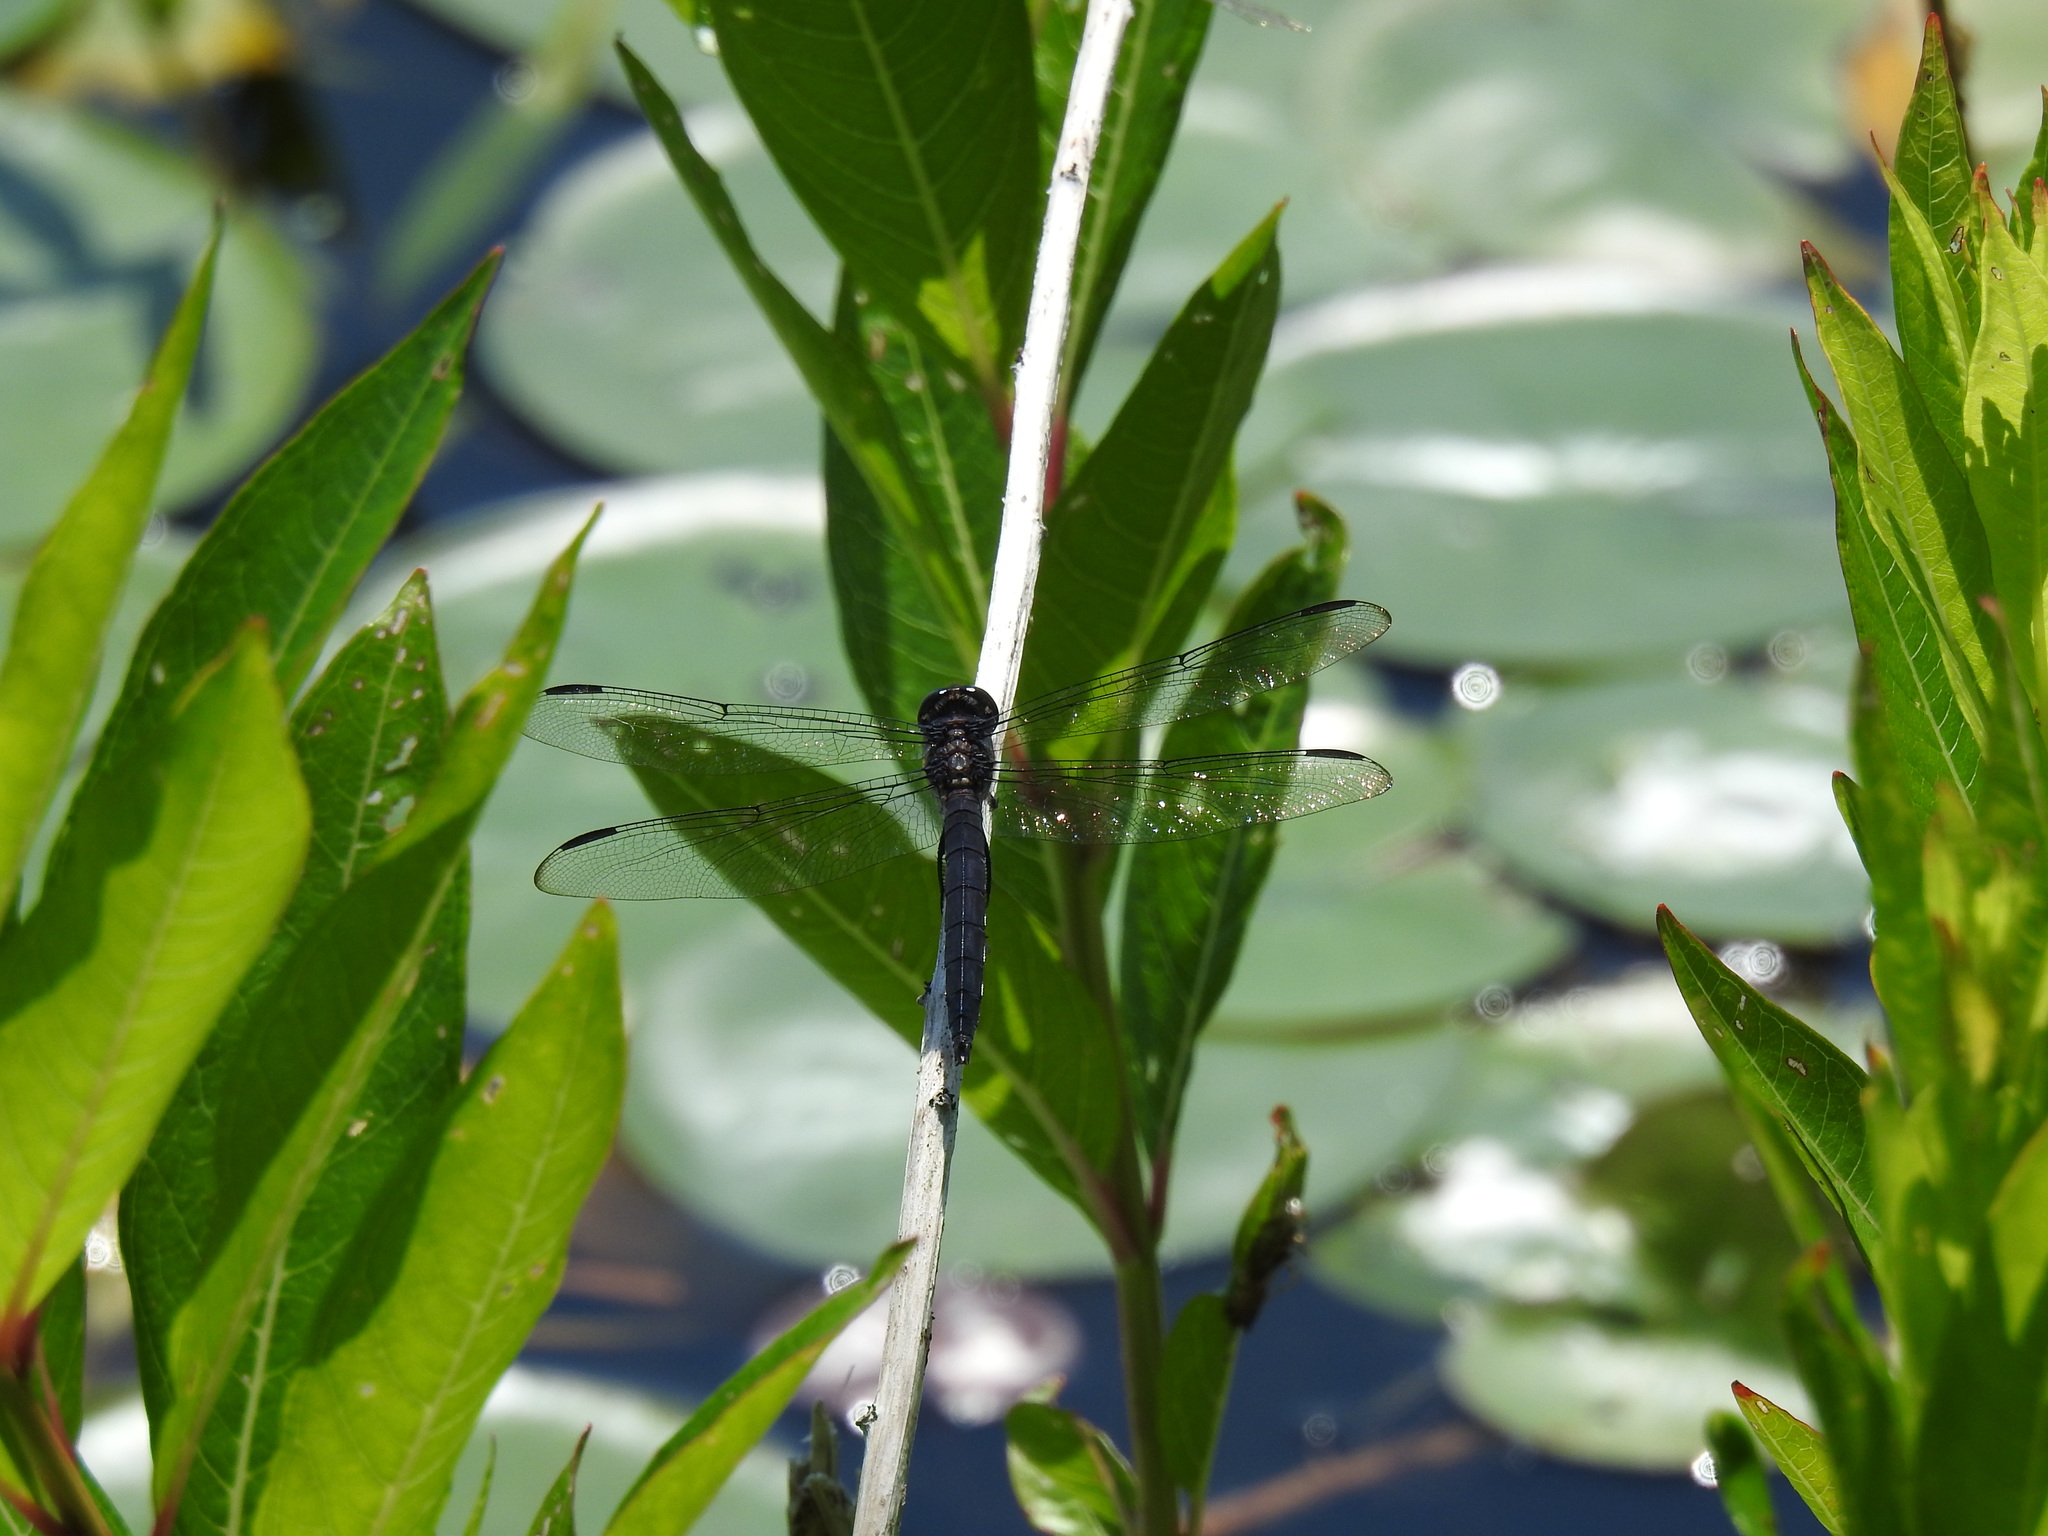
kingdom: Animalia
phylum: Arthropoda
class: Insecta
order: Odonata
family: Libellulidae
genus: Libellula
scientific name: Libellula incesta
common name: Slaty skimmer
